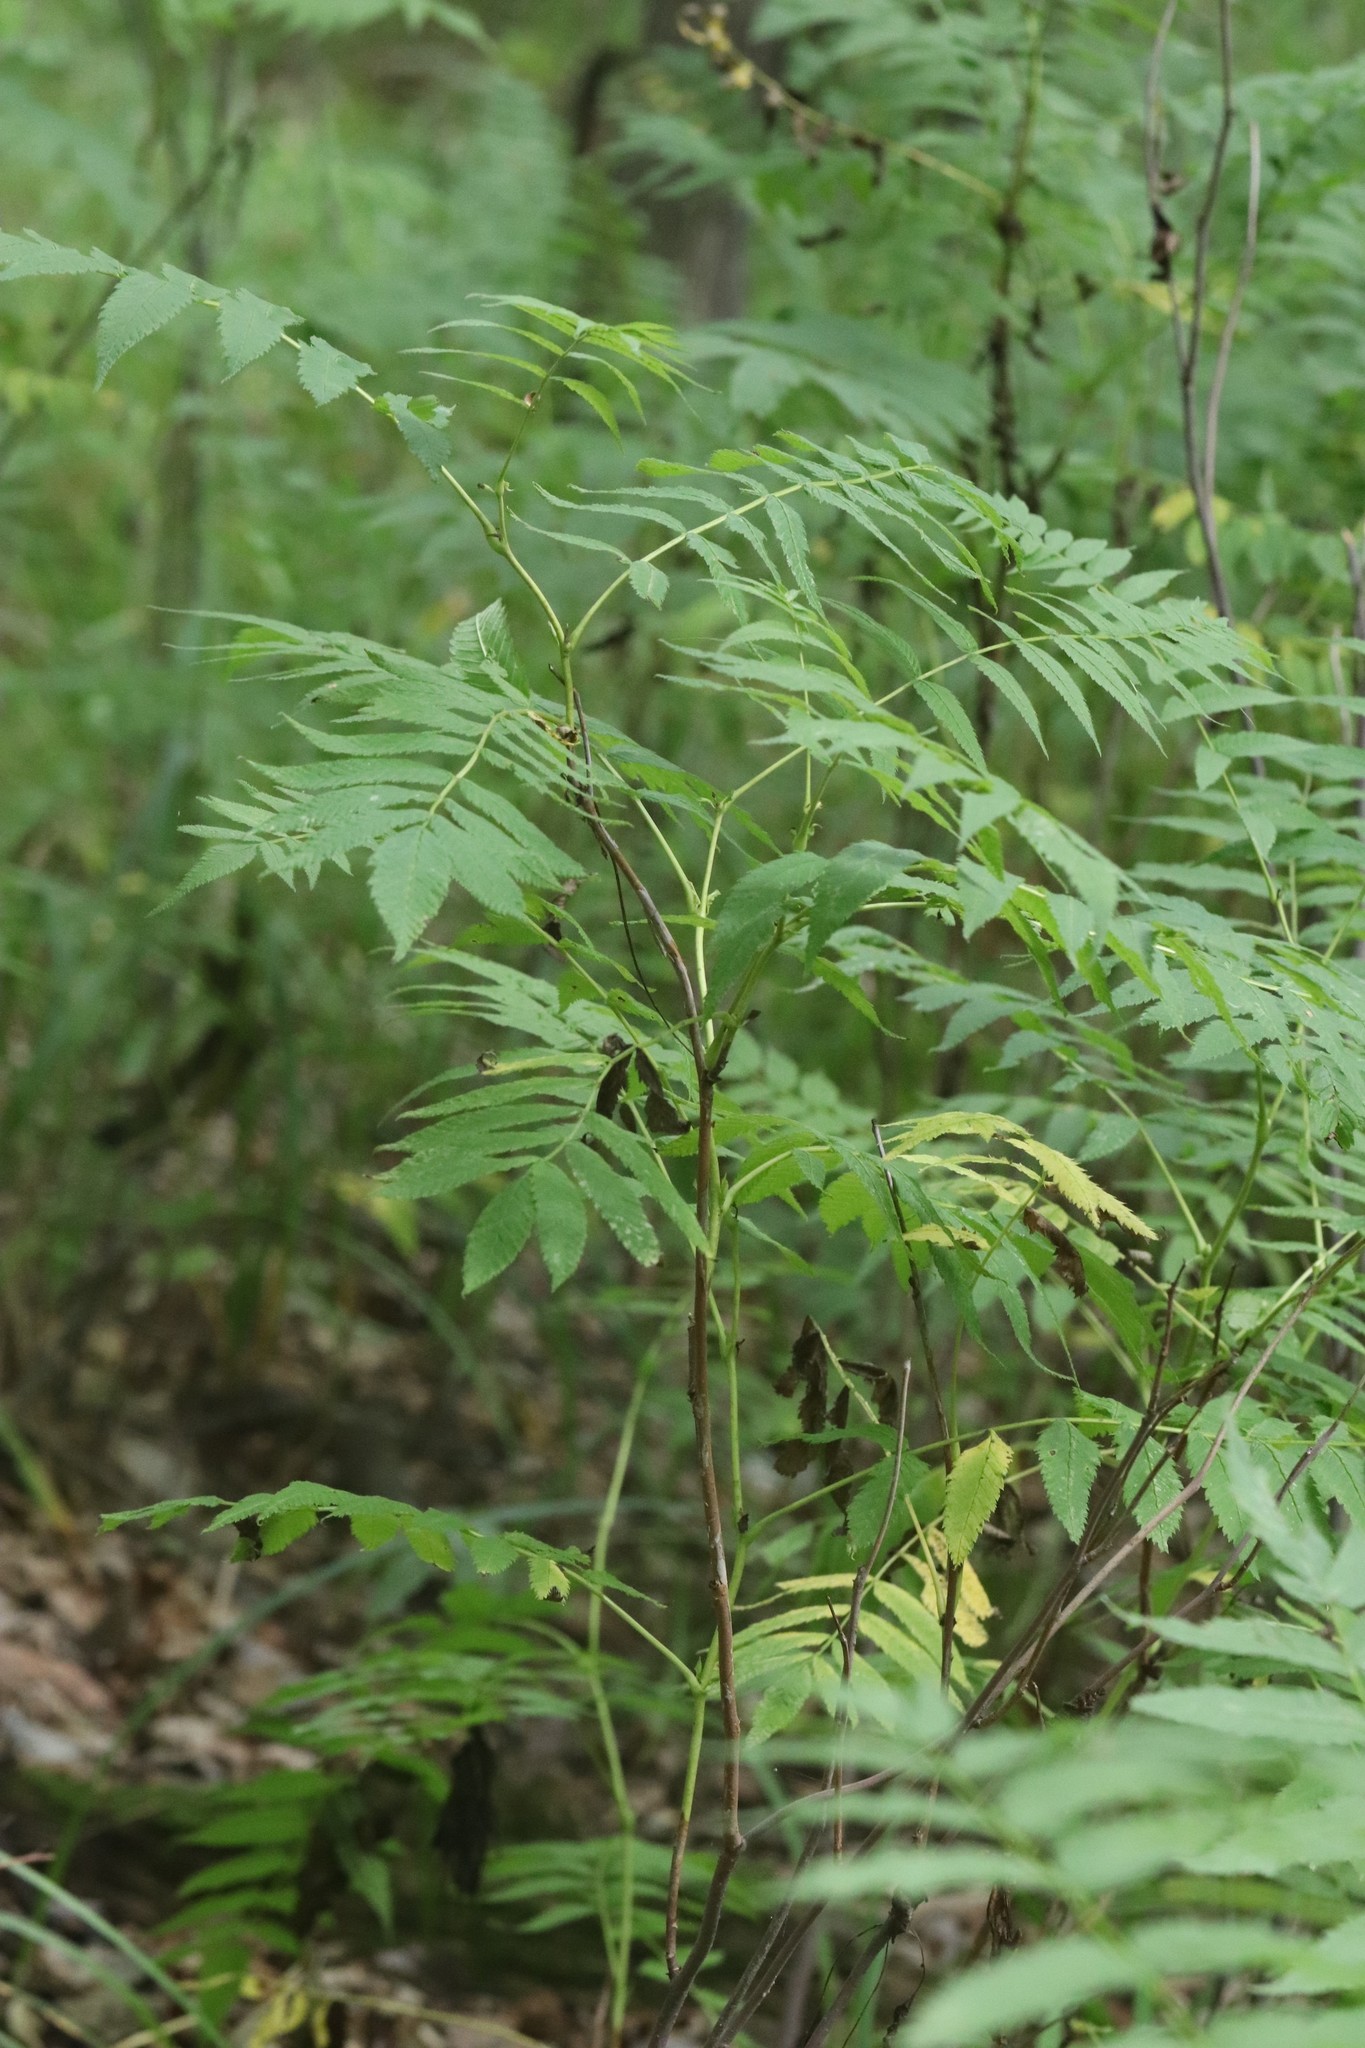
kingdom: Plantae
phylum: Tracheophyta
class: Magnoliopsida
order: Rosales
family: Rosaceae
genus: Sorbaria
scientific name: Sorbaria sorbifolia
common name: False spiraea
